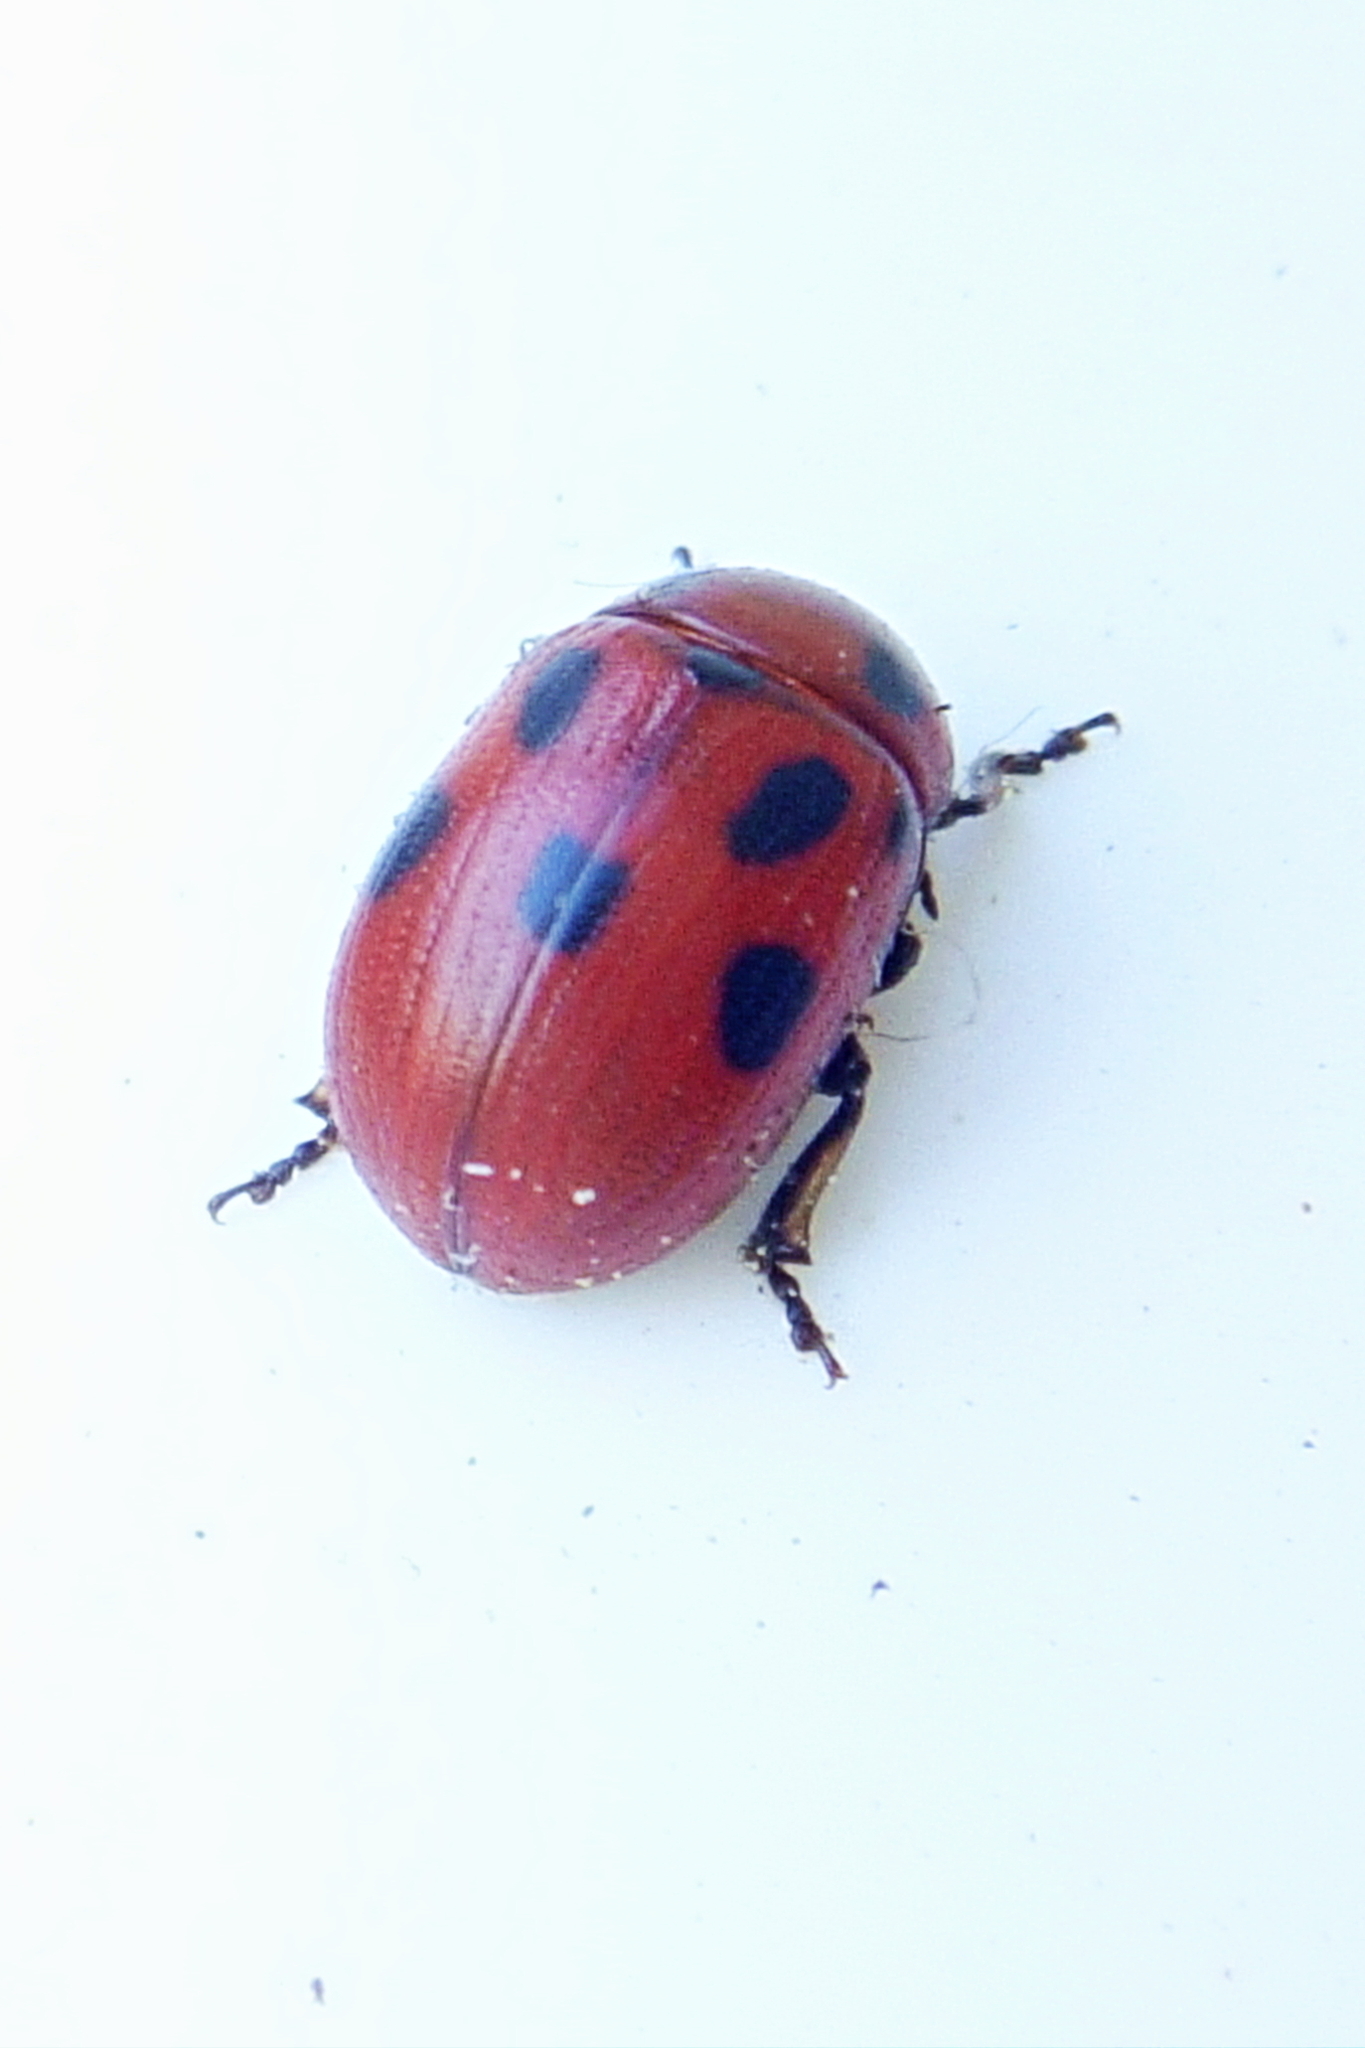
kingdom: Animalia
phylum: Arthropoda
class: Insecta
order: Coleoptera
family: Chrysomelidae
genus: Gonioctena
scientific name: Gonioctena fornicata
